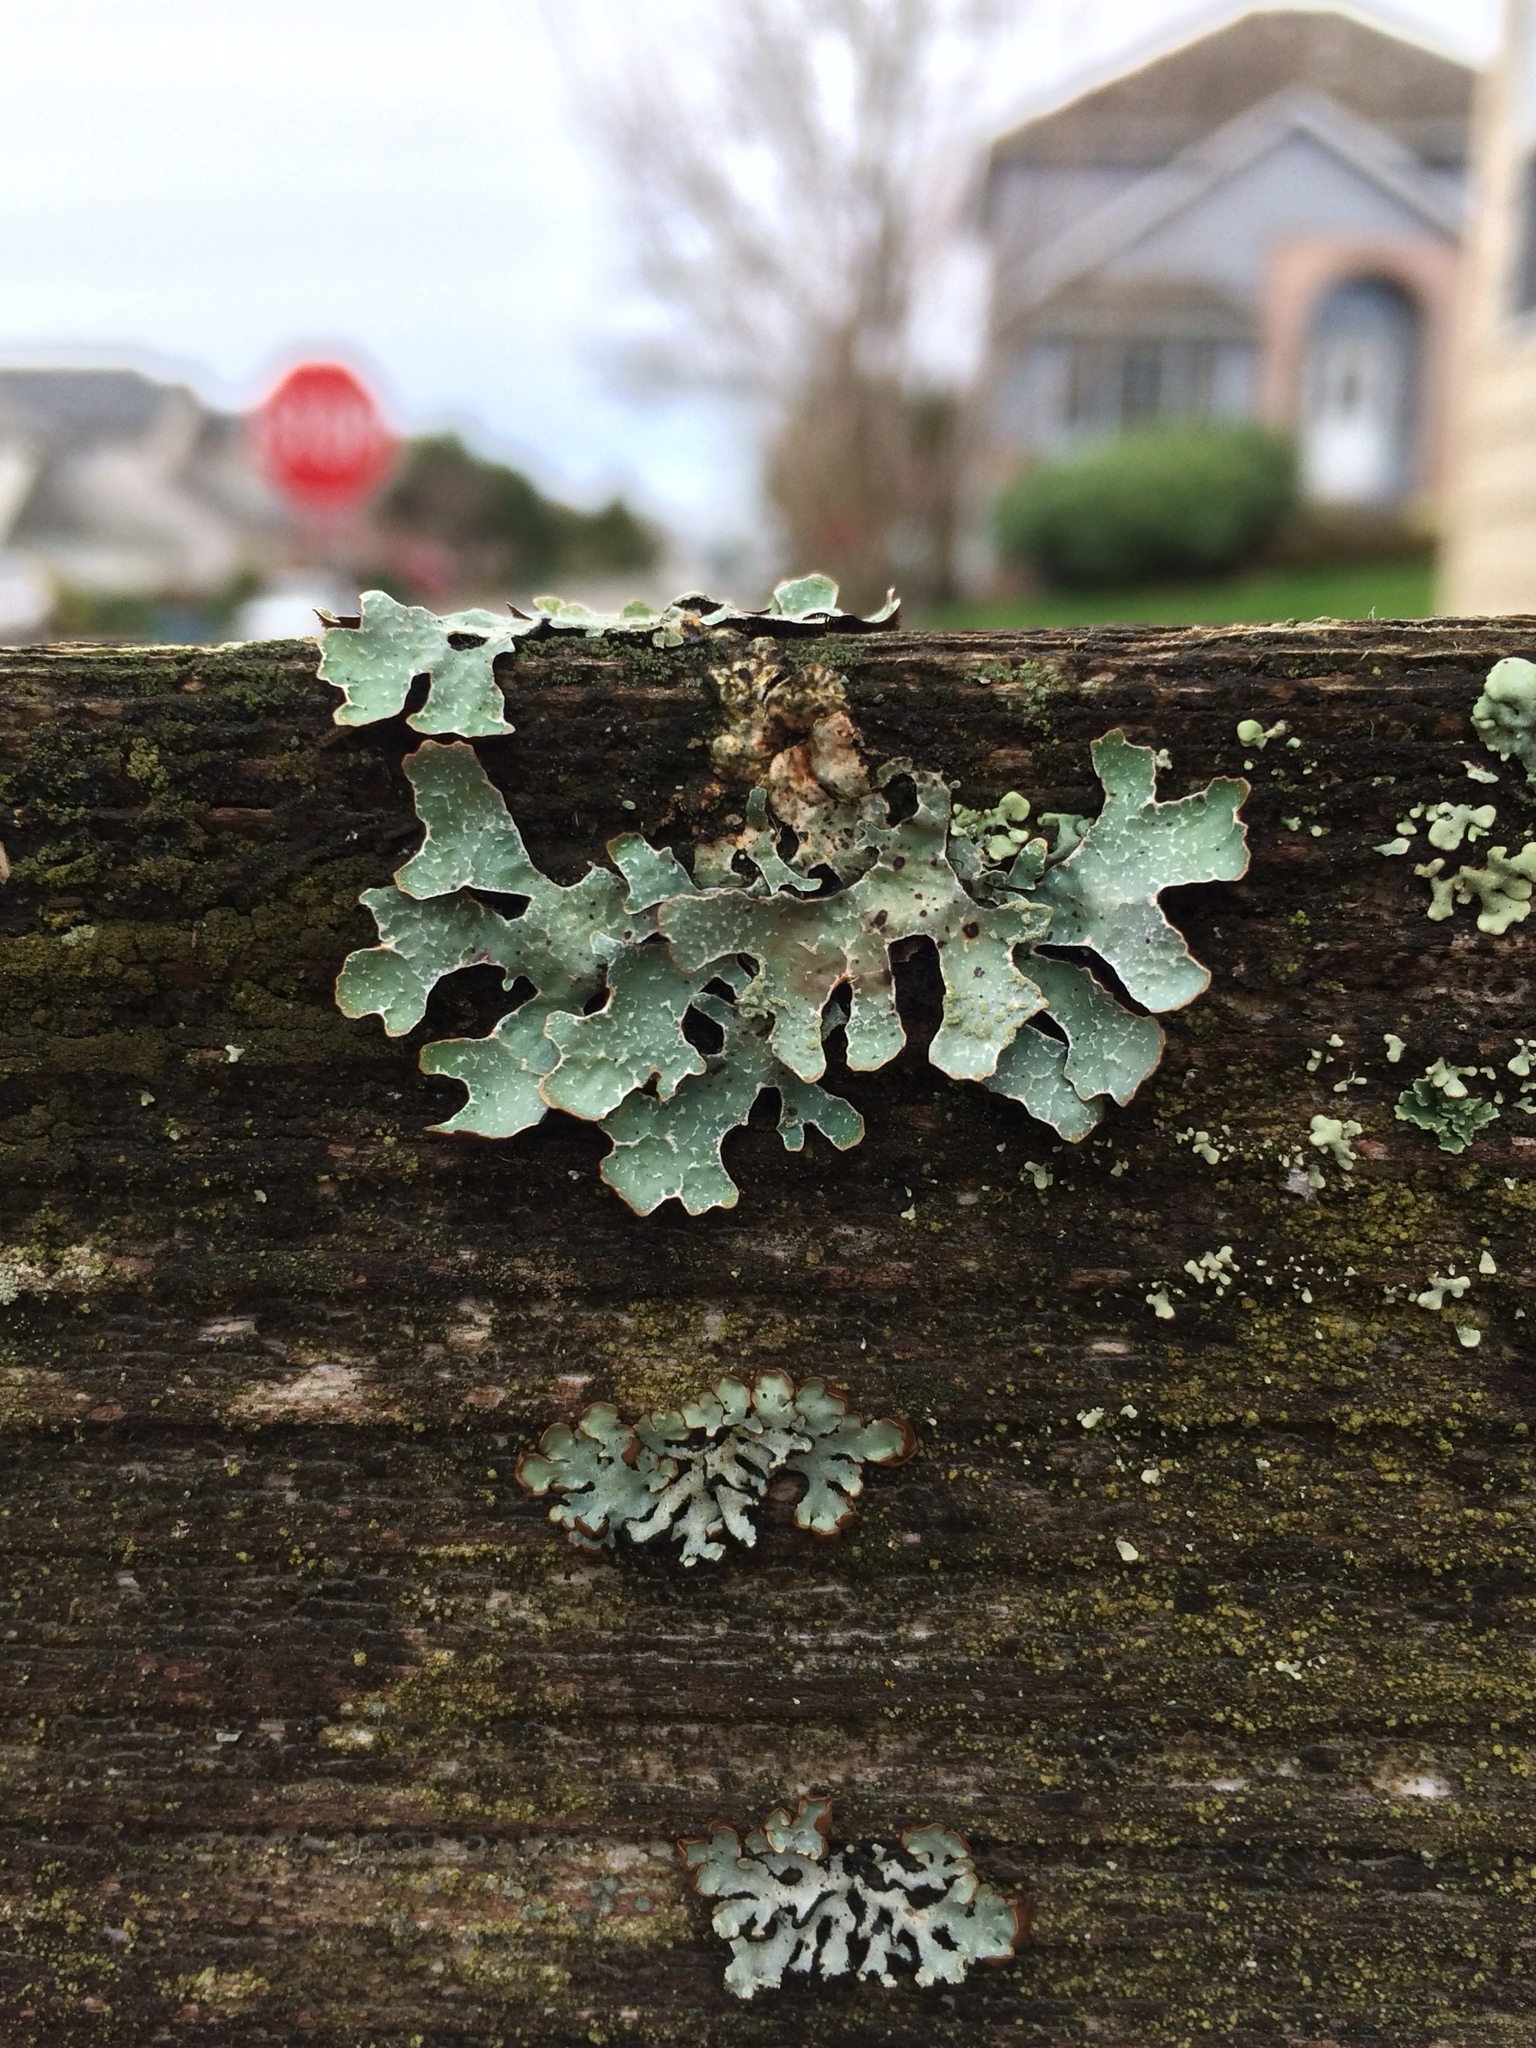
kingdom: Fungi
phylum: Ascomycota
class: Lecanoromycetes
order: Lecanorales
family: Parmeliaceae
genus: Parmelia
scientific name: Parmelia sulcata
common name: Netted shield lichen
